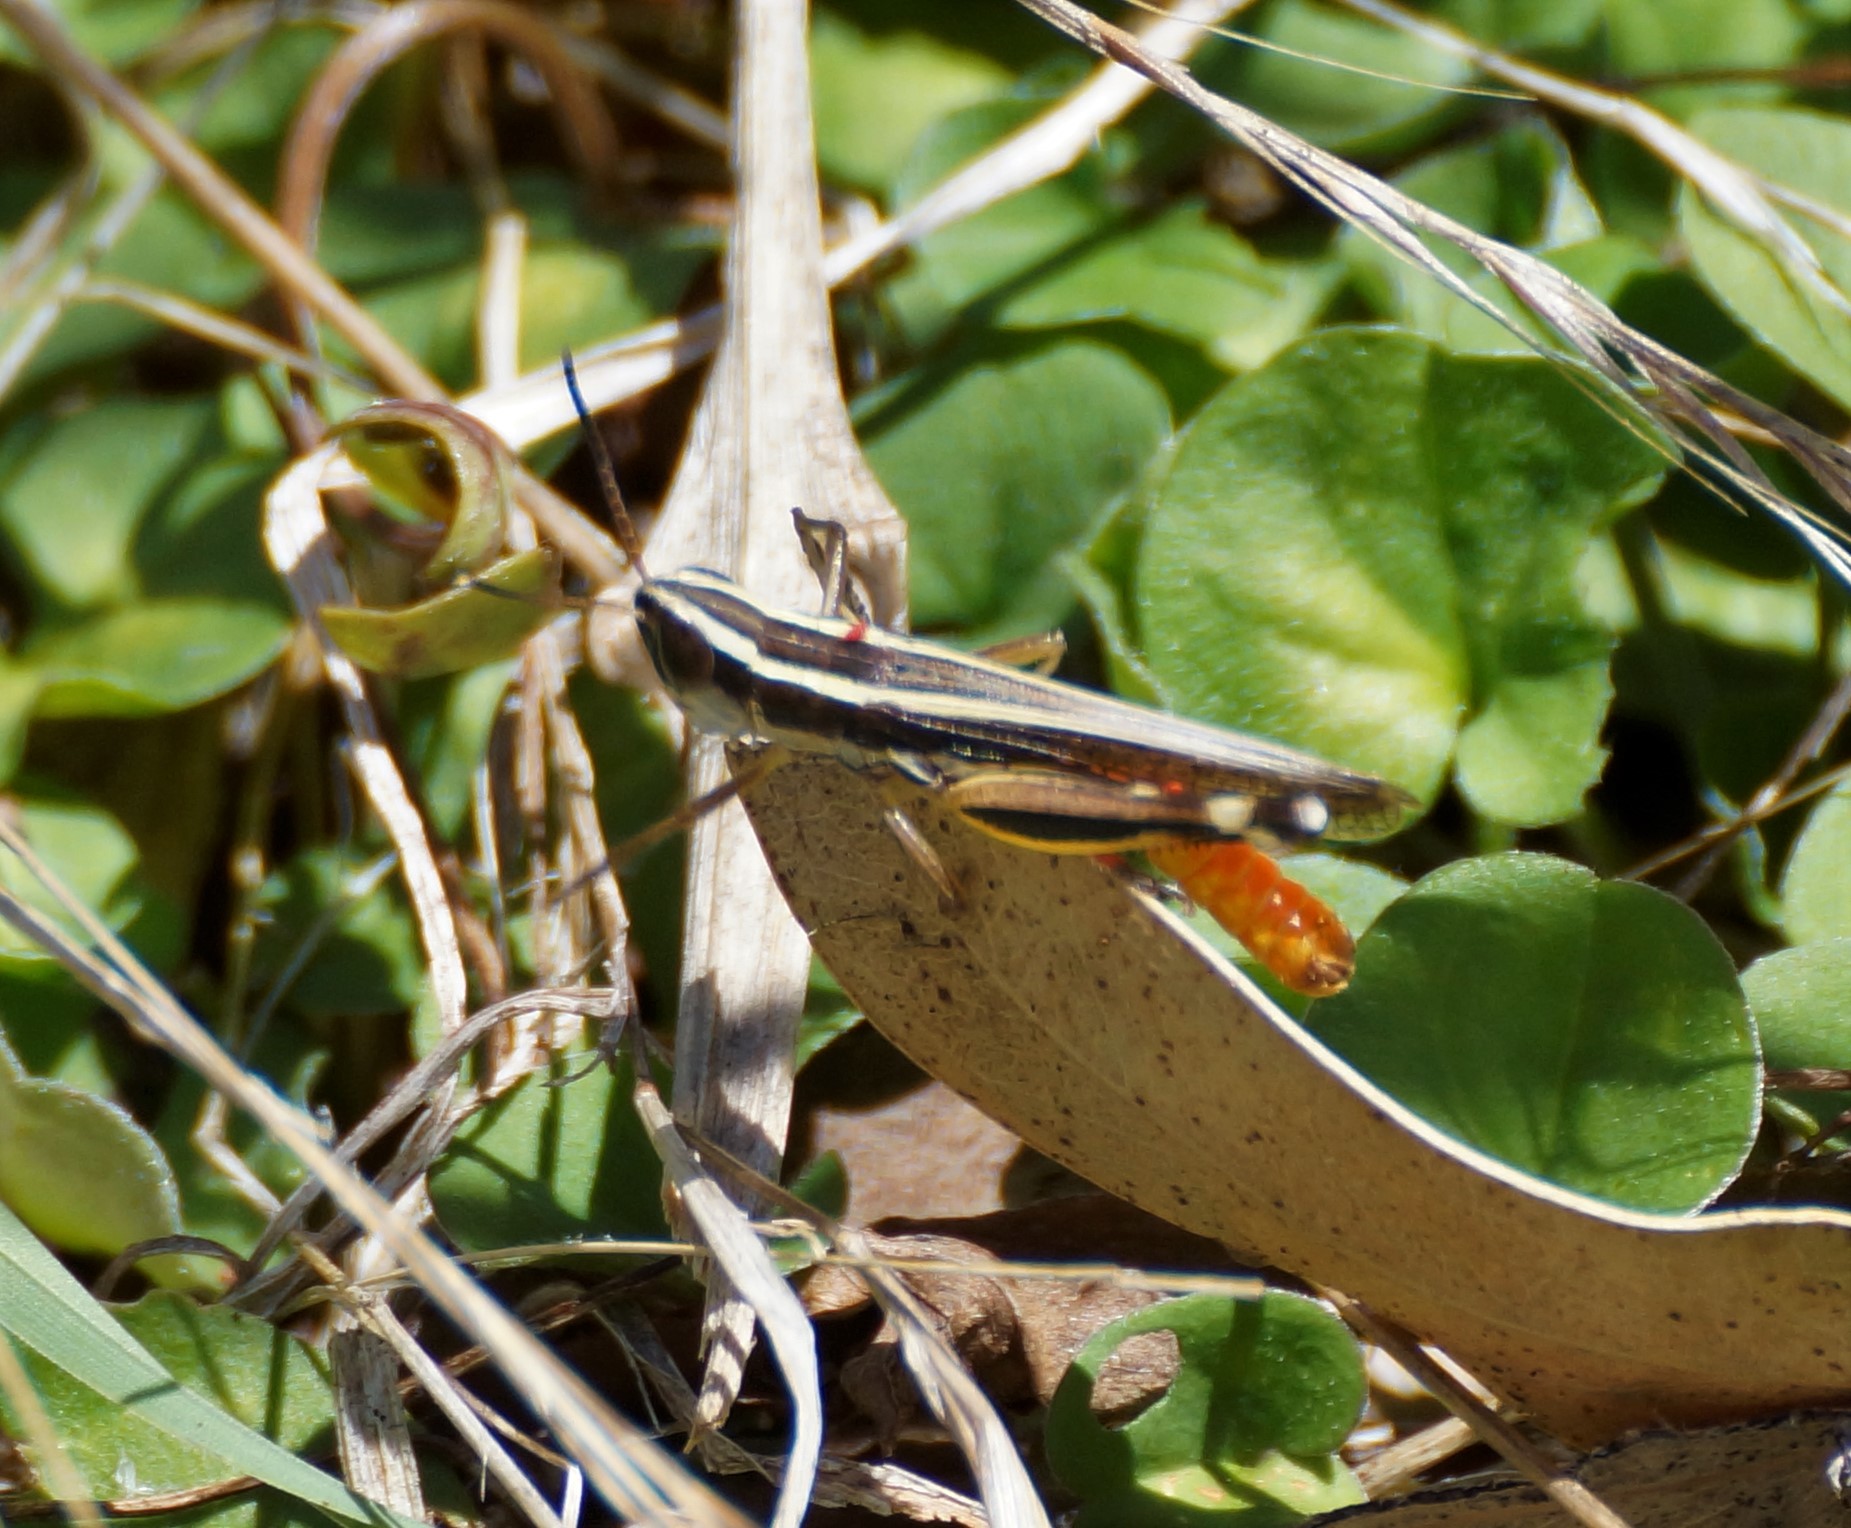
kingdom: Animalia
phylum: Arthropoda
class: Insecta
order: Orthoptera
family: Acrididae
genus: Macrotona
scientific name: Macrotona australis
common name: Common macrotona
